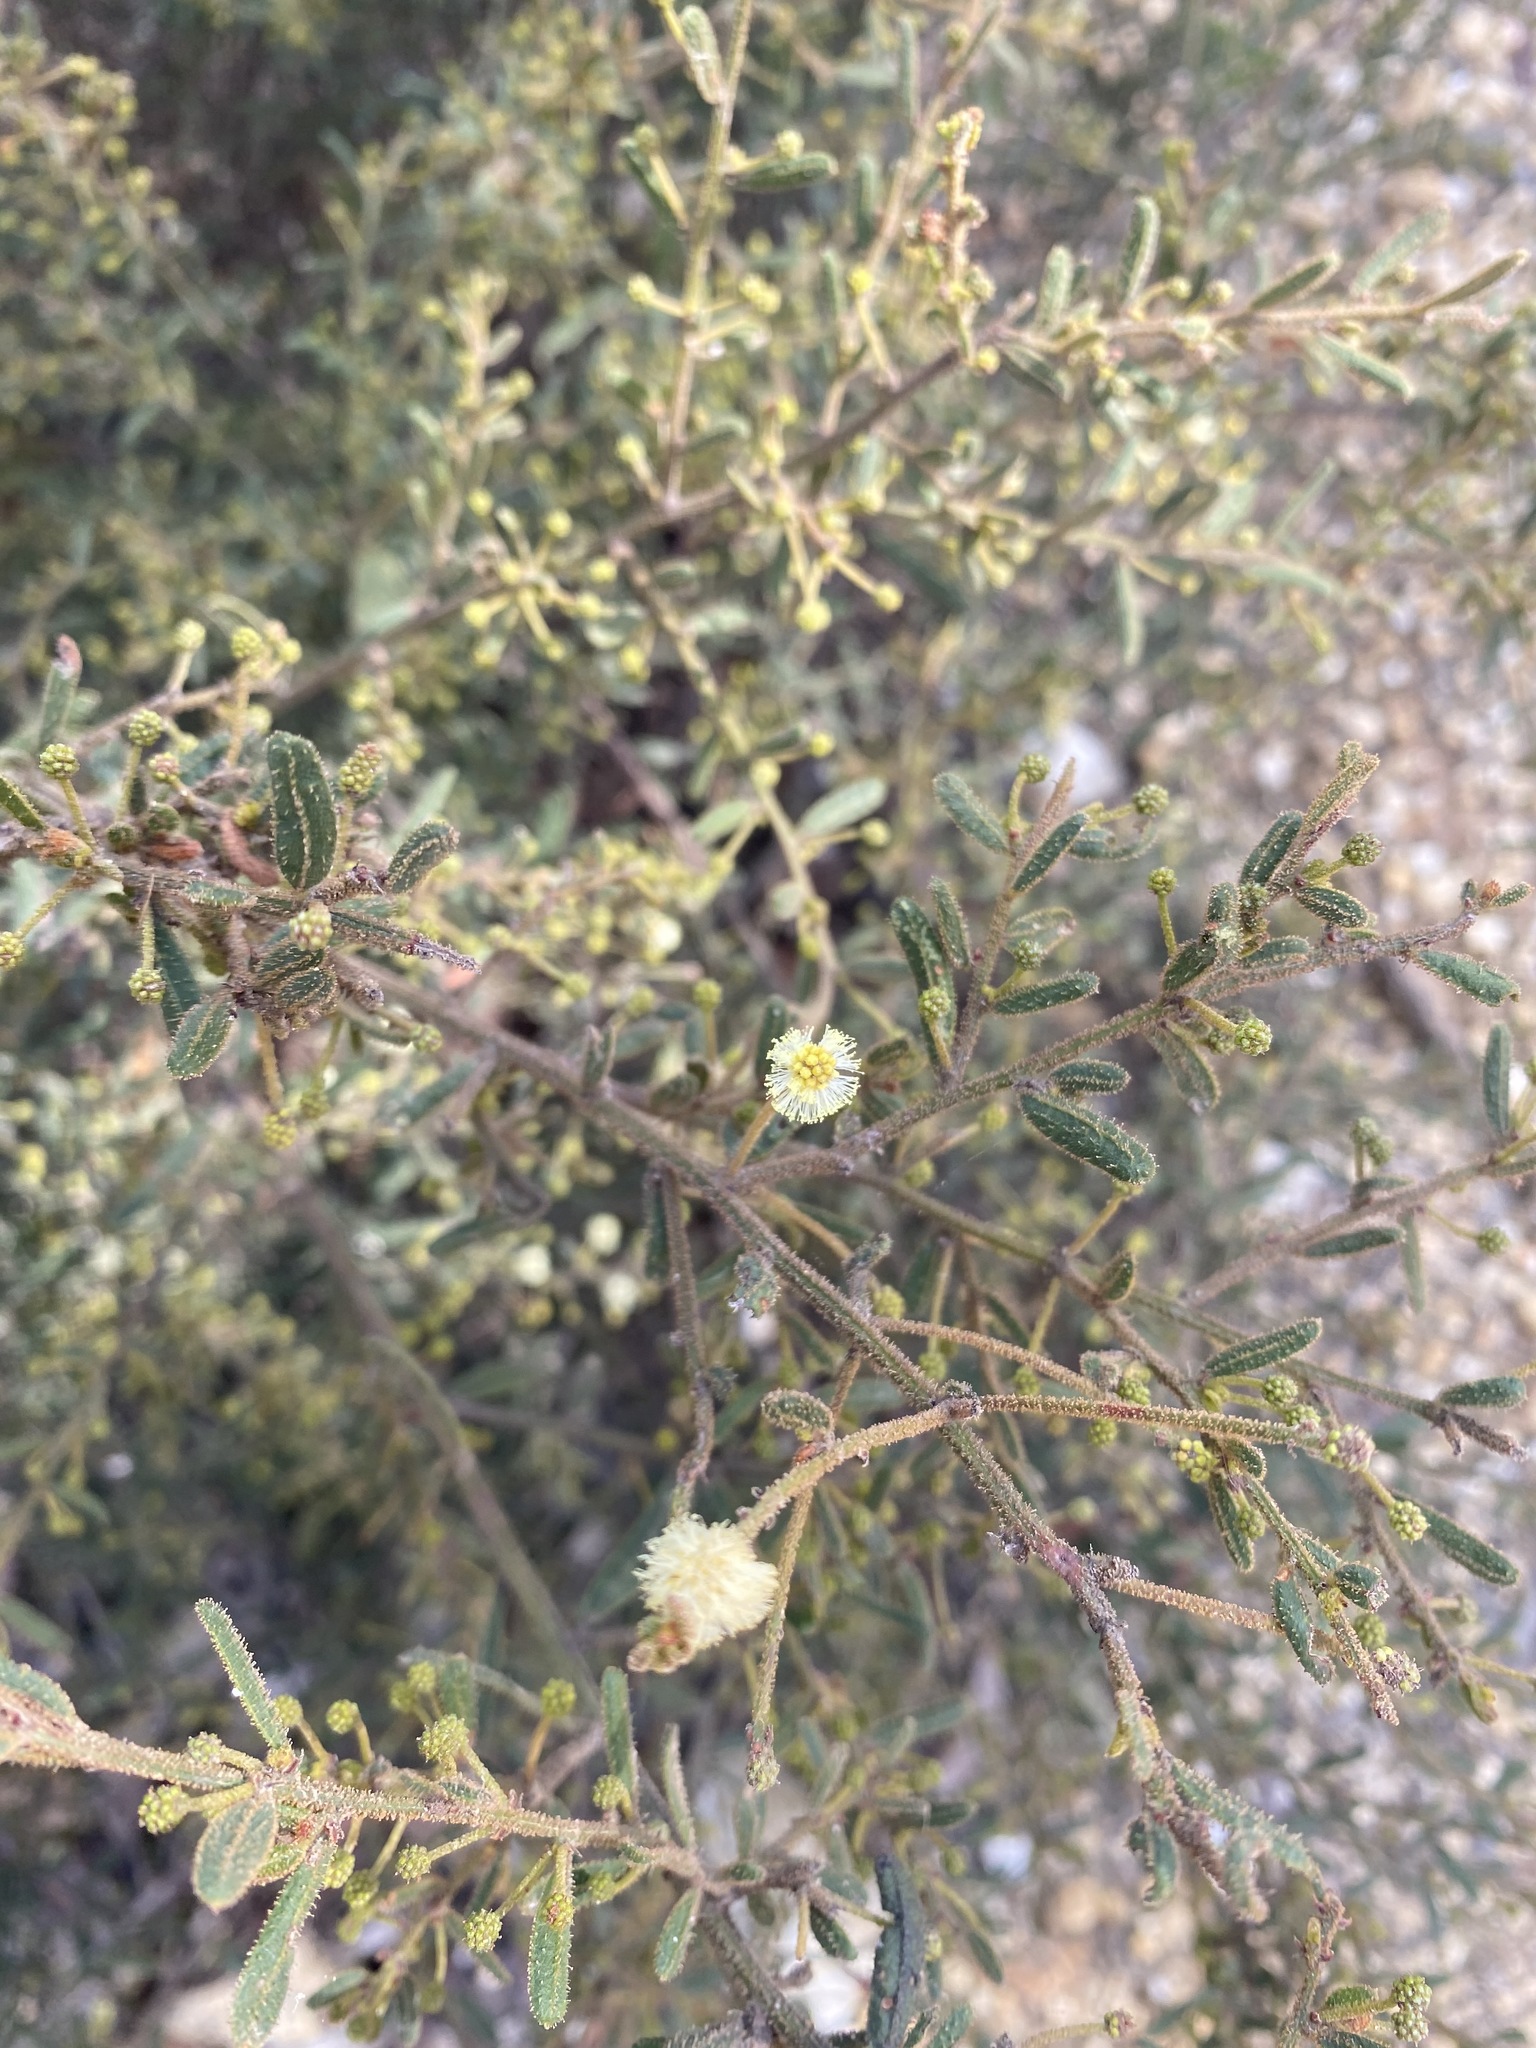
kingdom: Plantae
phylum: Tracheophyta
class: Magnoliopsida
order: Fabales
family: Fabaceae
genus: Acacia
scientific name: Acacia gunnii
